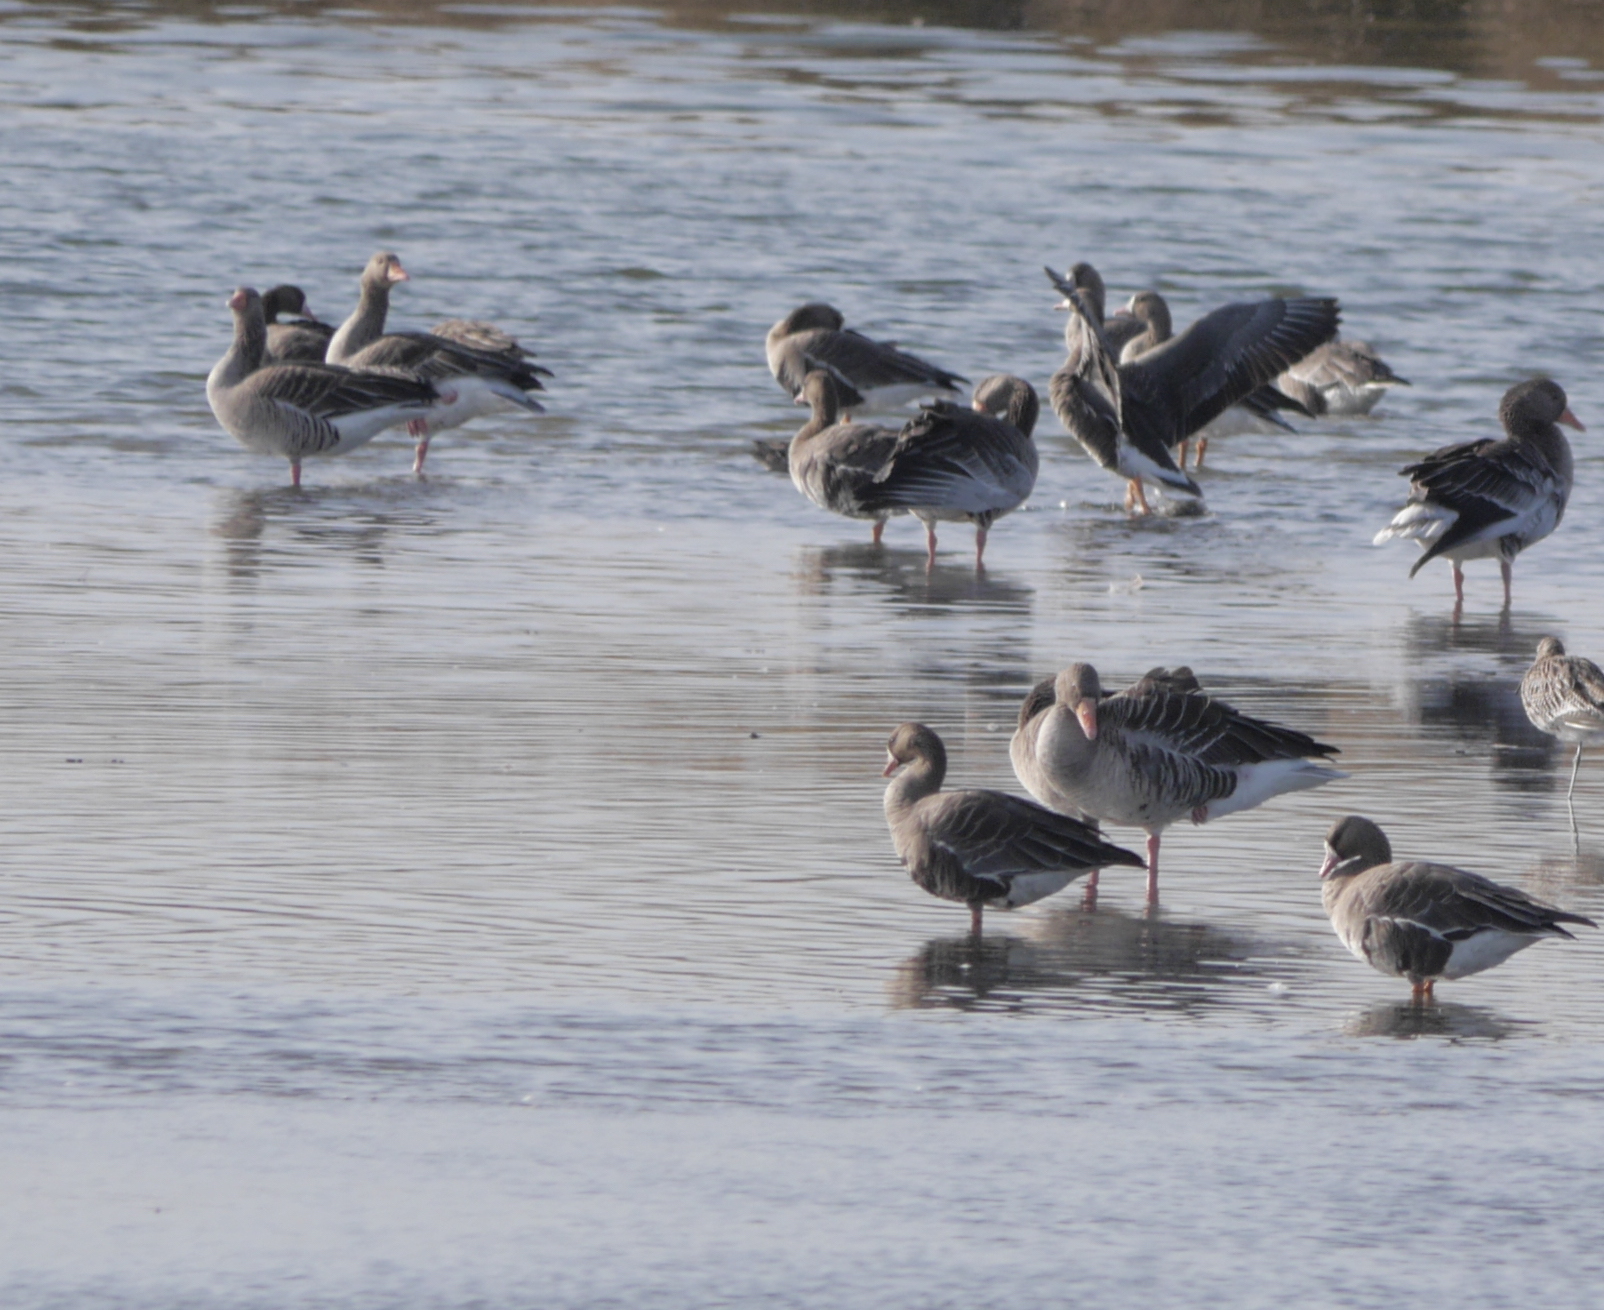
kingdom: Animalia
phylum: Chordata
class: Aves
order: Anseriformes
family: Anatidae
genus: Anser
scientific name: Anser anser
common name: Greylag goose
